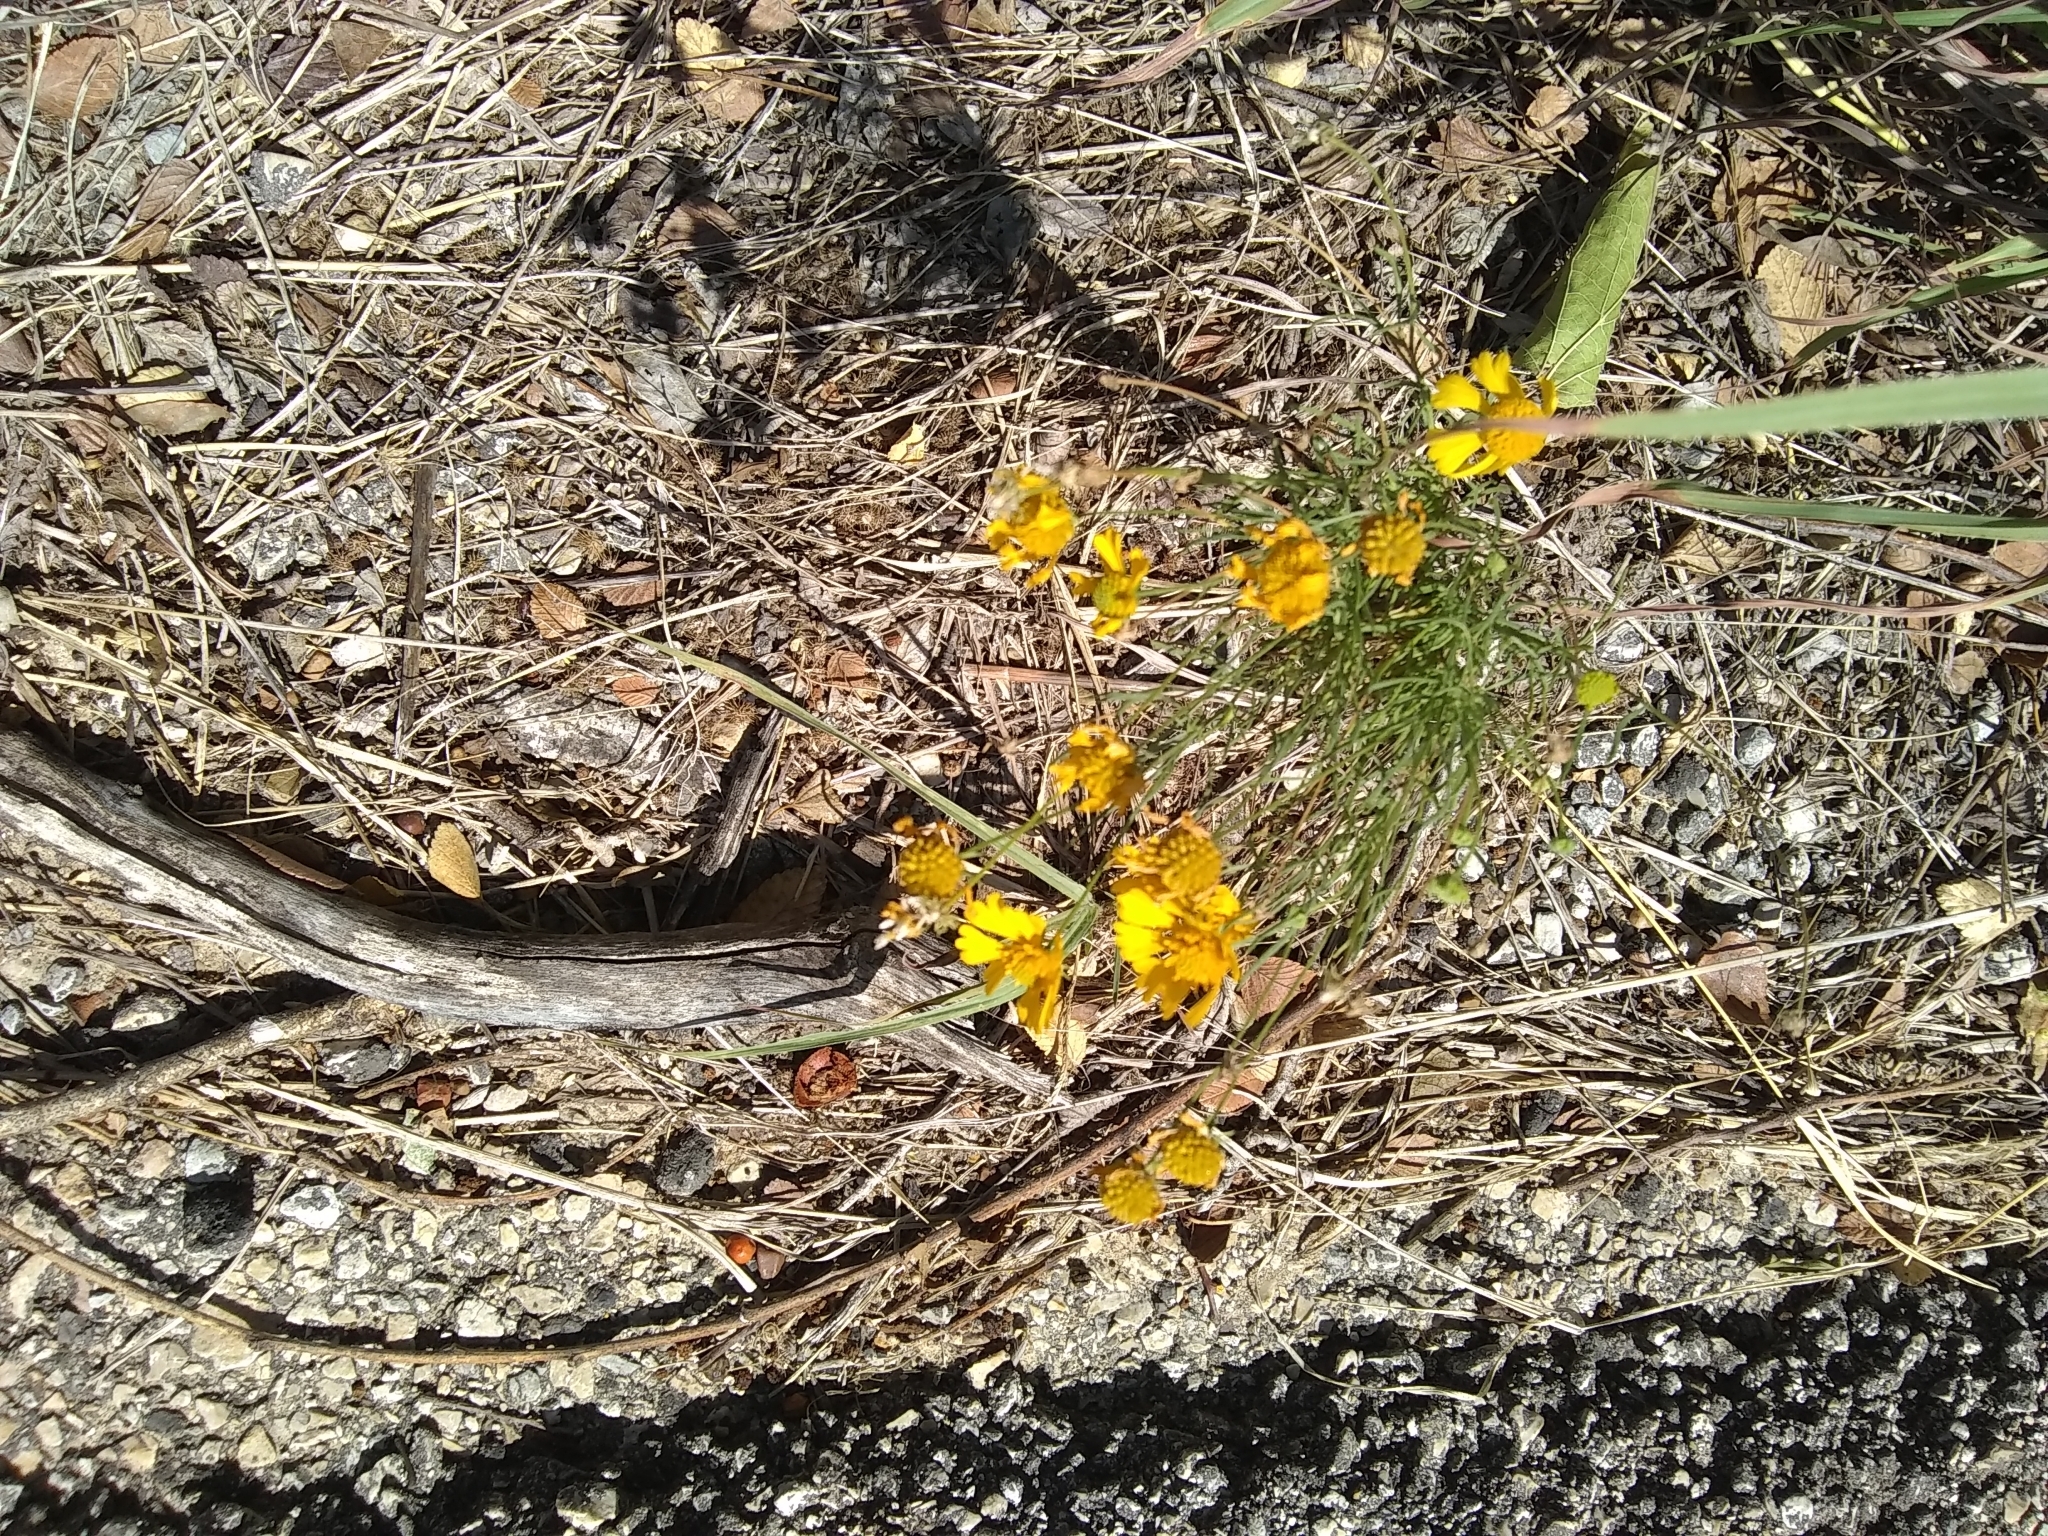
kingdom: Plantae
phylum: Tracheophyta
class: Magnoliopsida
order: Asterales
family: Asteraceae
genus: Helenium
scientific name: Helenium amarum
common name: Bitter sneezeweed
